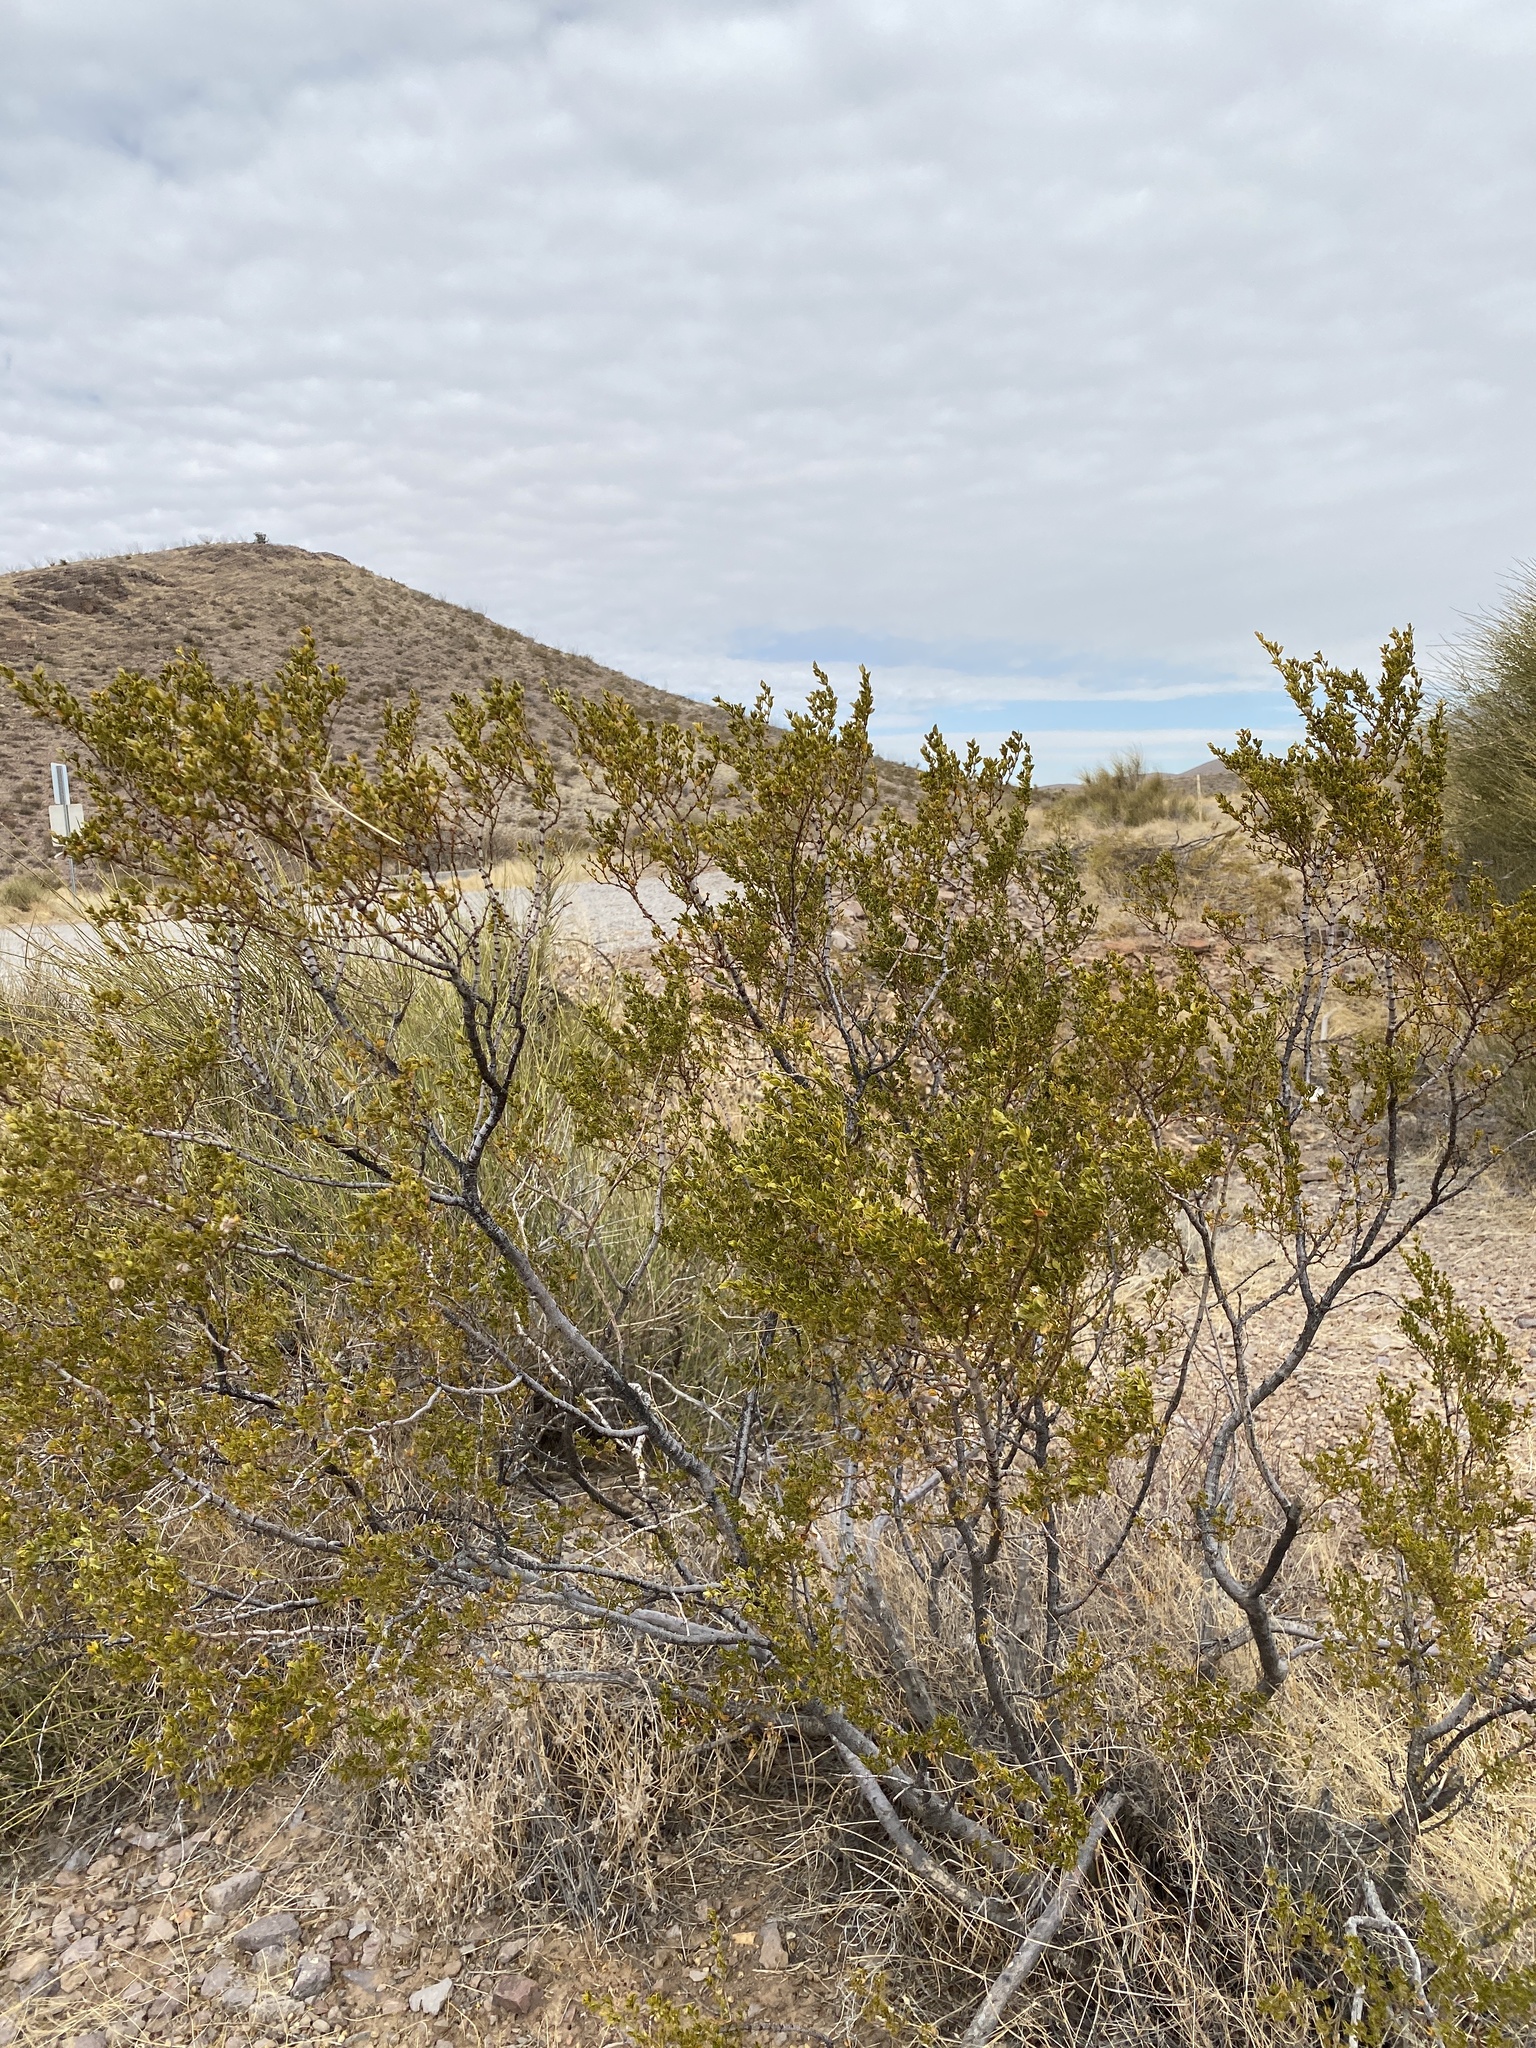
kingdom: Plantae
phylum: Tracheophyta
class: Magnoliopsida
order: Zygophyllales
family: Zygophyllaceae
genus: Larrea
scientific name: Larrea tridentata
